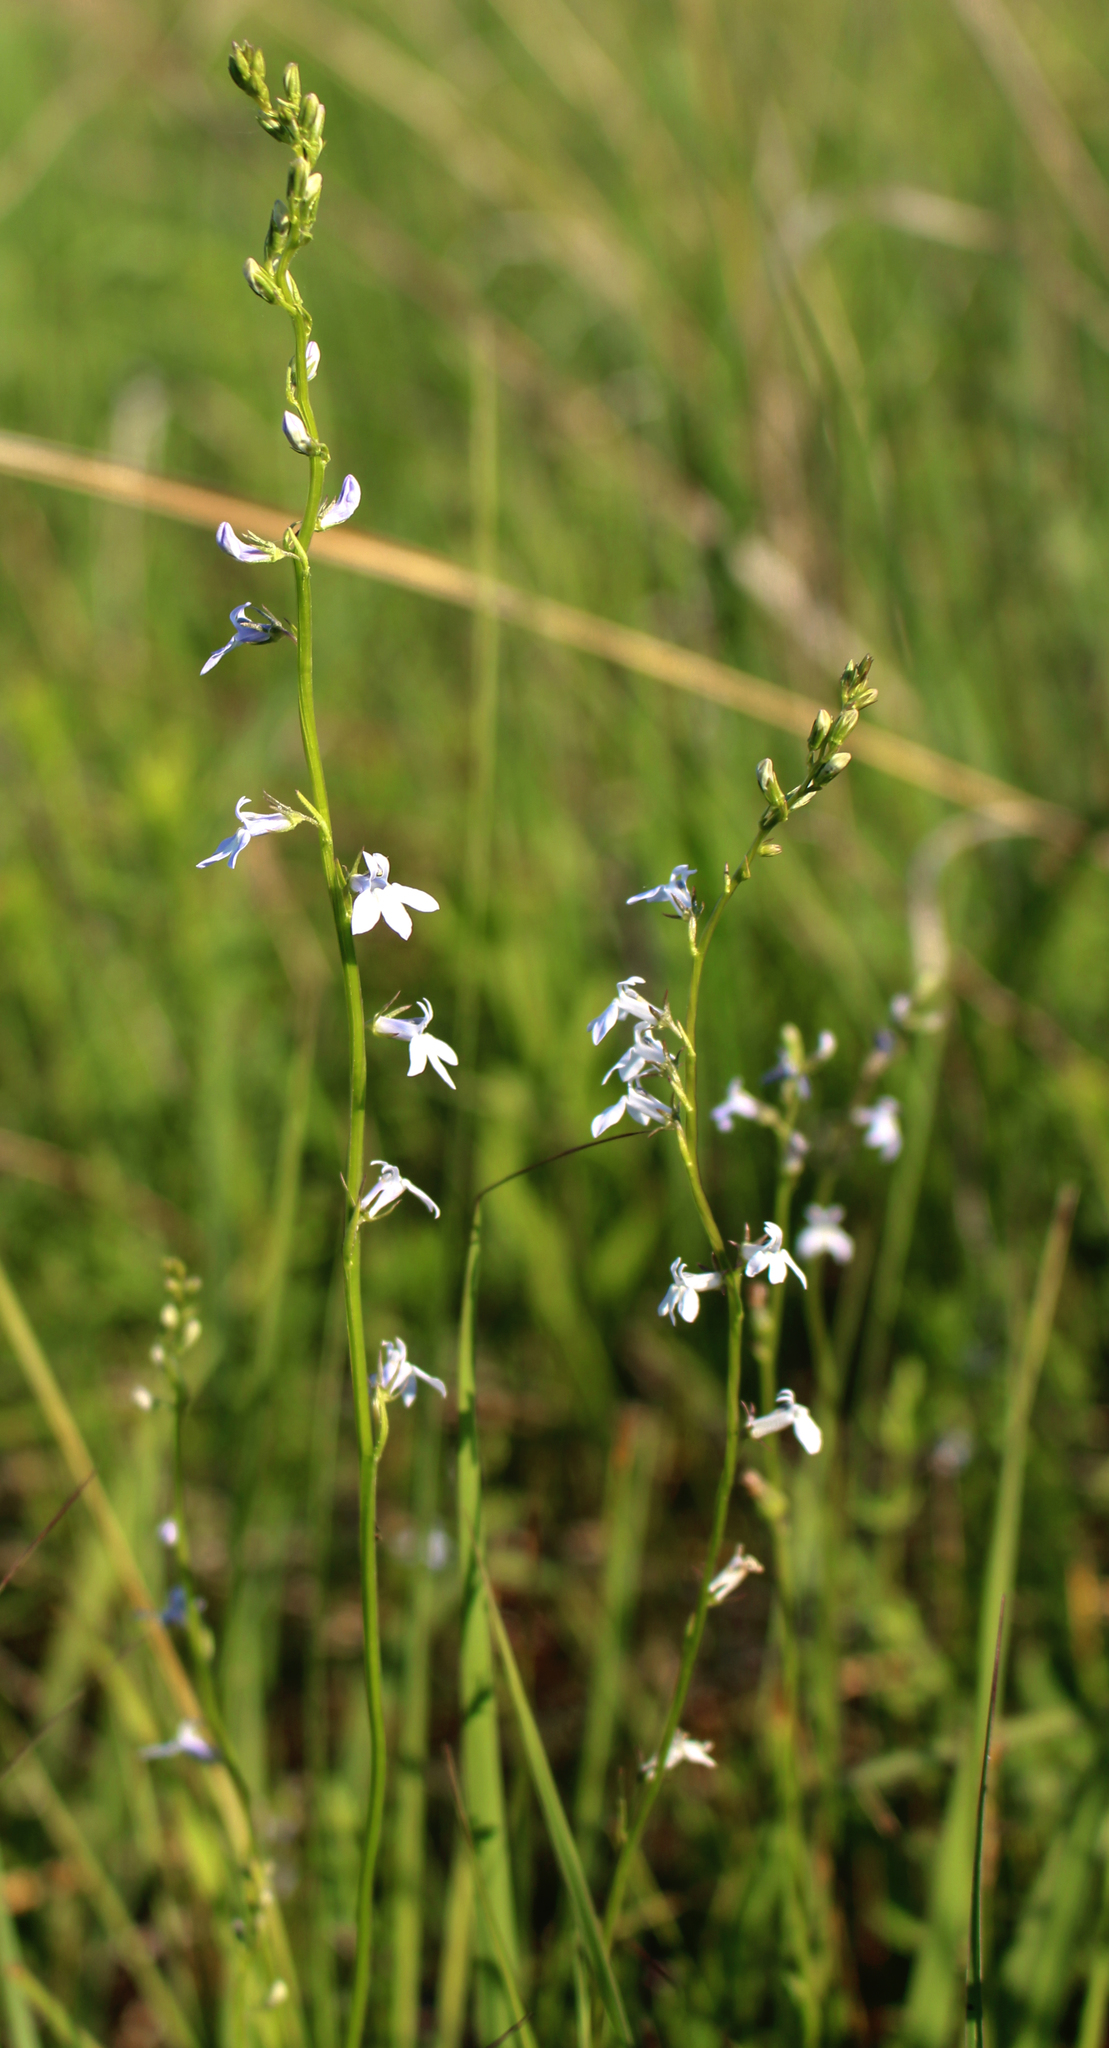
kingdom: Plantae
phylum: Tracheophyta
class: Magnoliopsida
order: Asterales
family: Campanulaceae
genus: Lobelia
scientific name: Lobelia spicata
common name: Pale-spike lobelia
